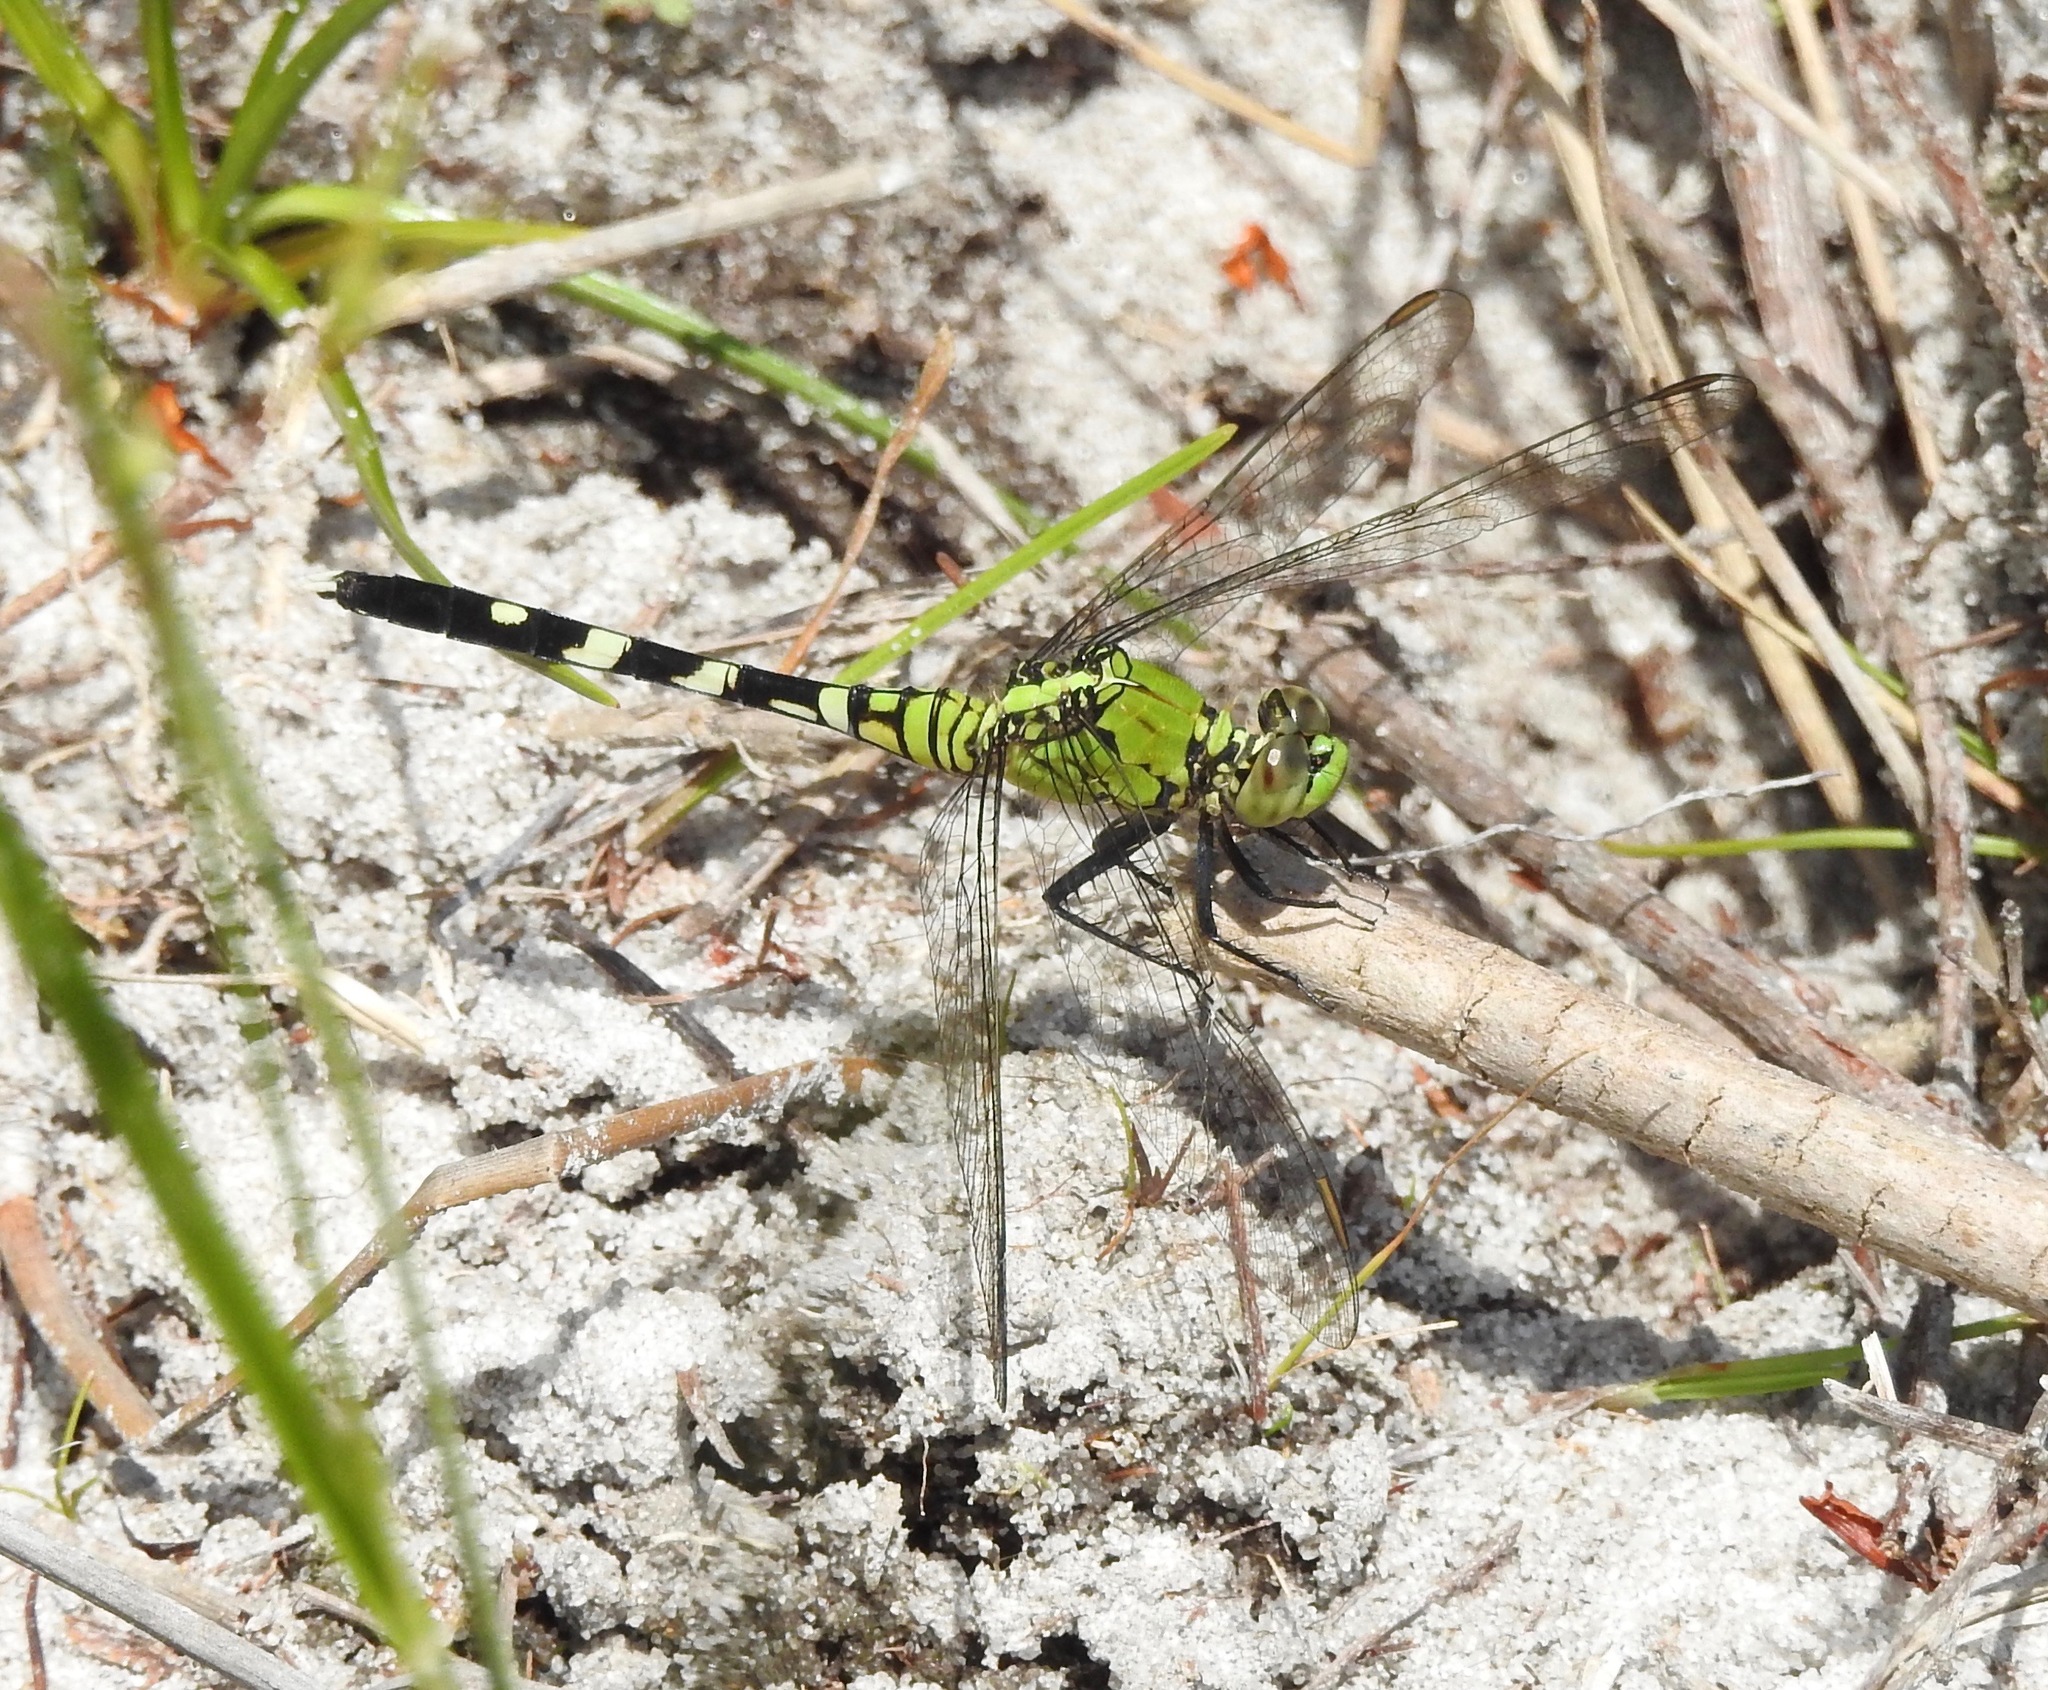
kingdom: Animalia
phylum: Arthropoda
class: Insecta
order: Odonata
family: Libellulidae
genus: Erythemis
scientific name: Erythemis simplicicollis
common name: Eastern pondhawk
